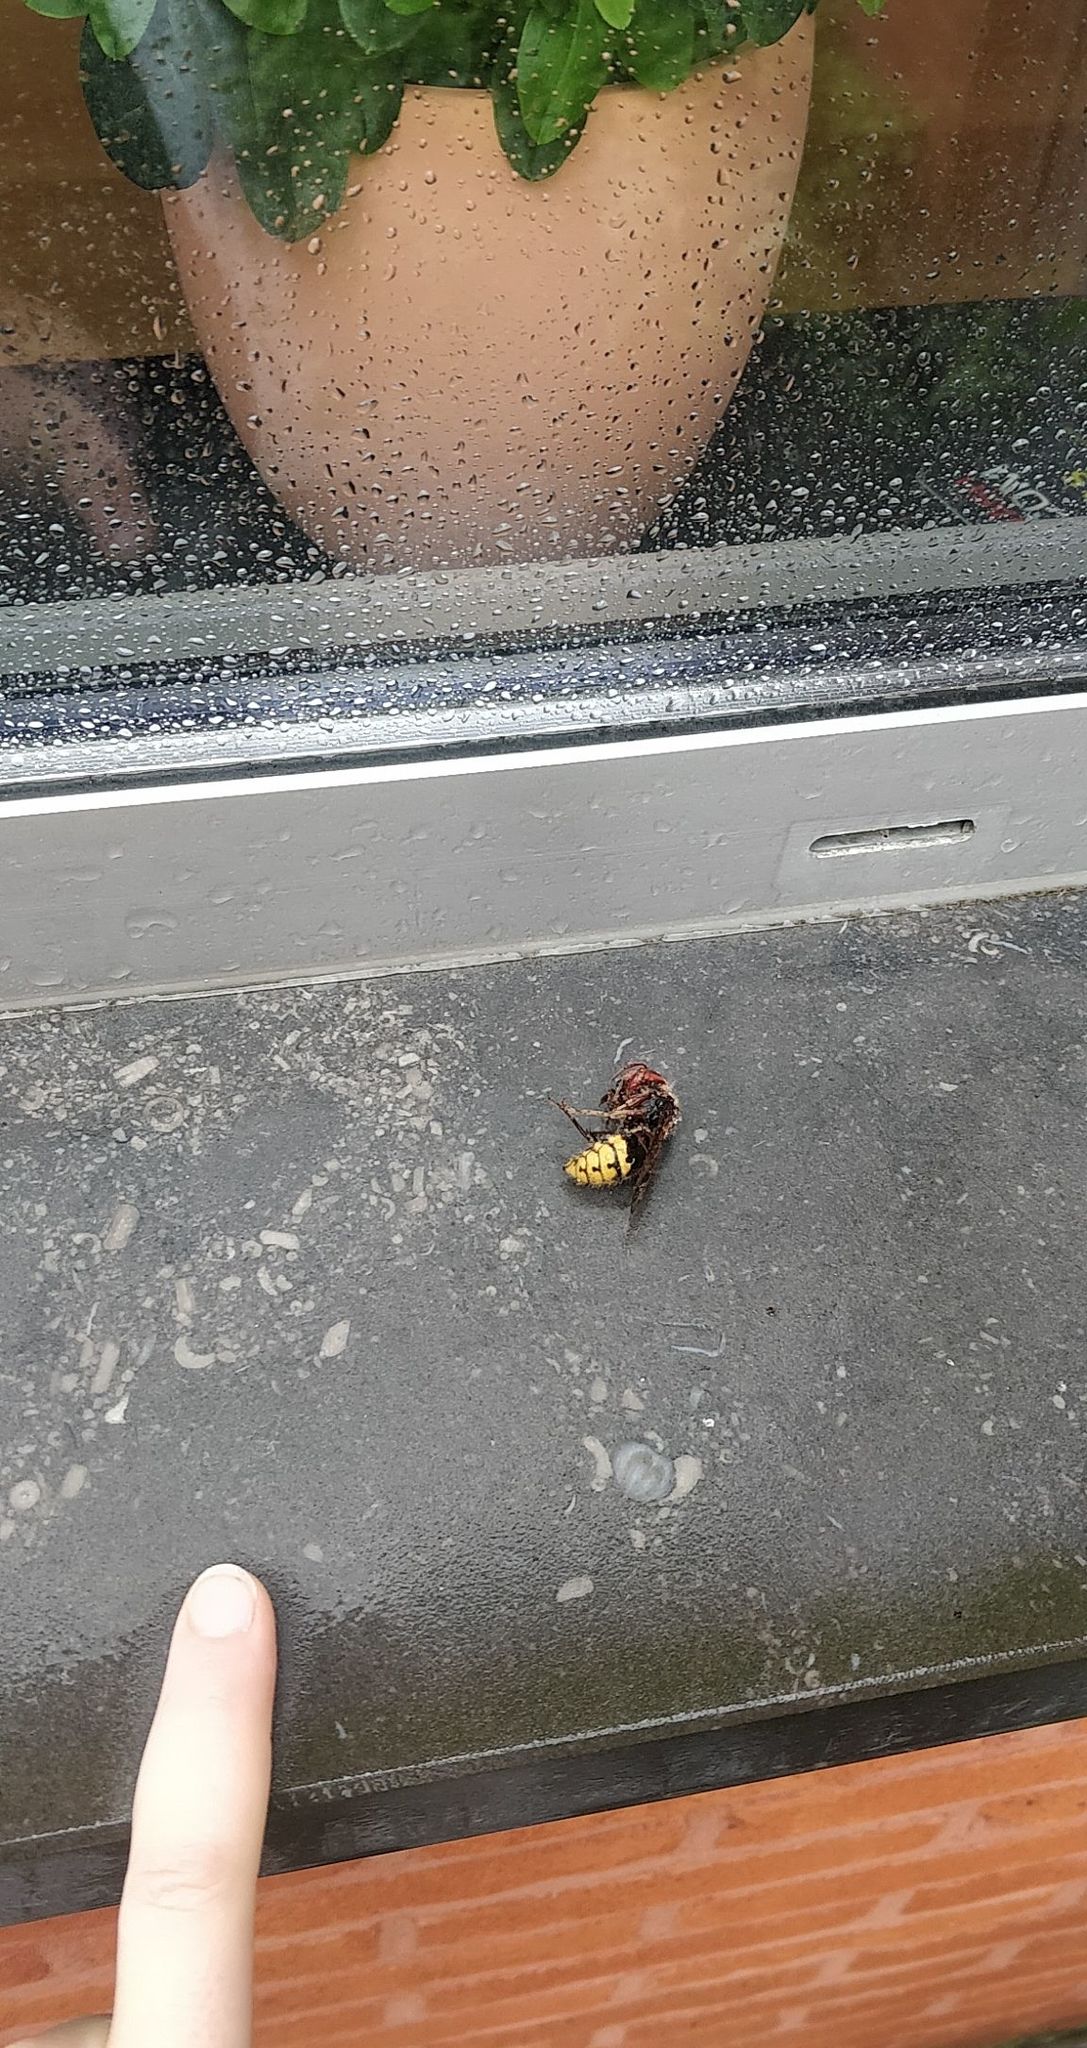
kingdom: Animalia
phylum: Arthropoda
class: Insecta
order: Hymenoptera
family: Vespidae
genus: Vespa
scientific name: Vespa crabro
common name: Hornet
